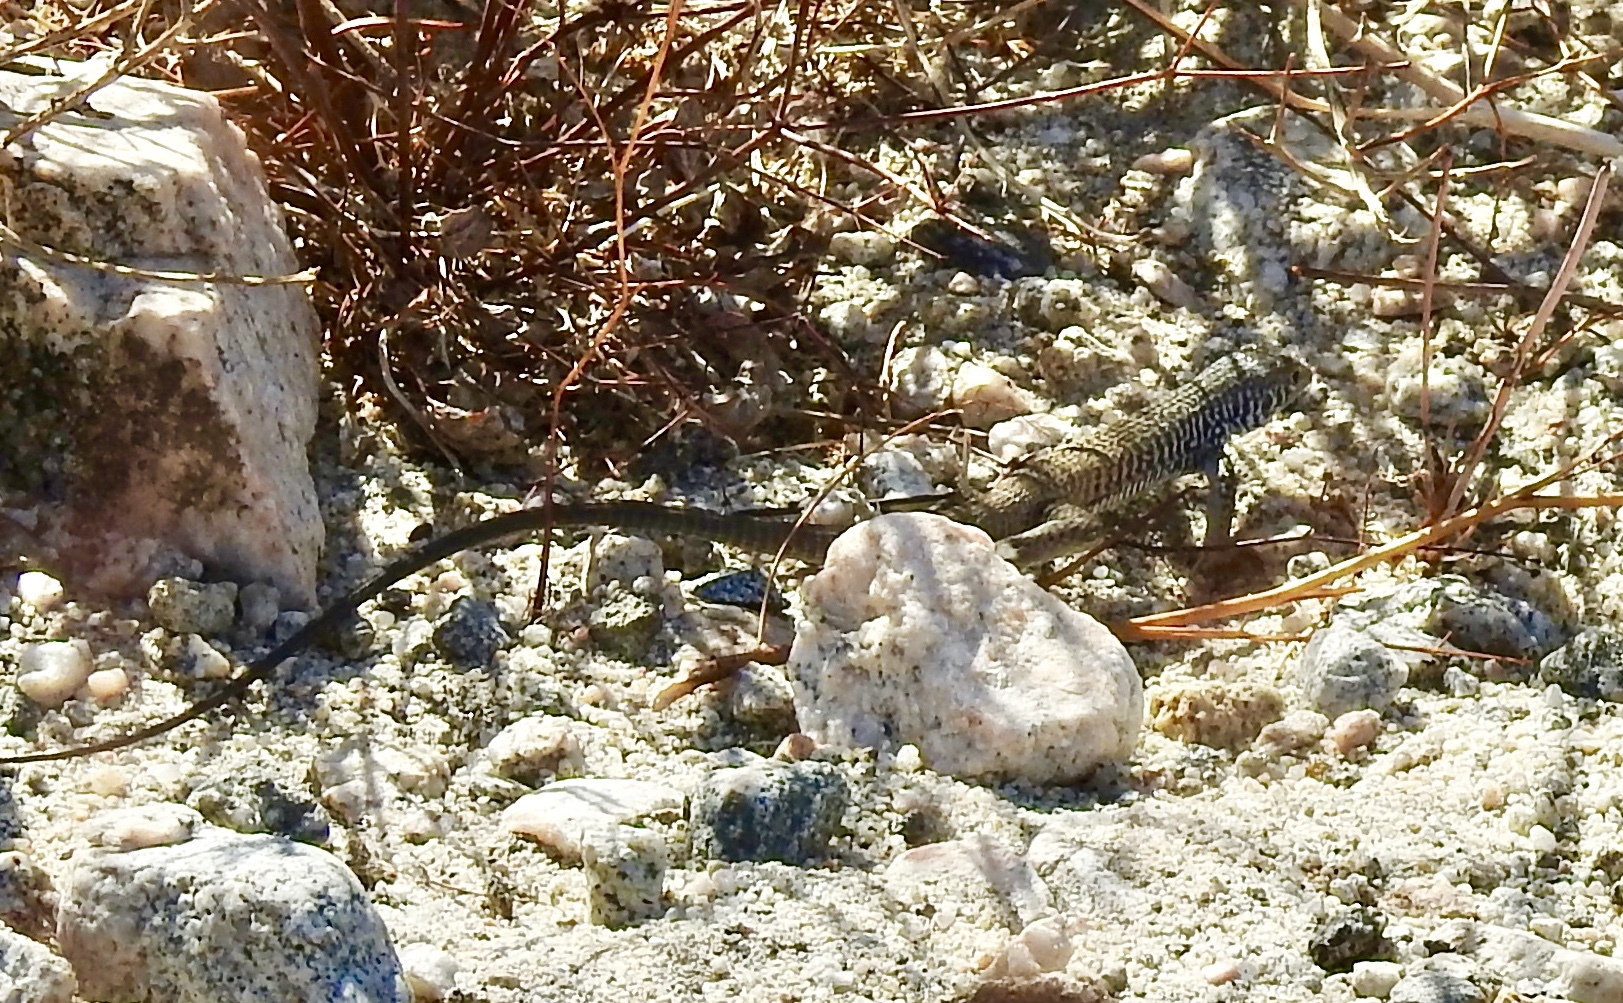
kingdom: Animalia
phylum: Chordata
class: Squamata
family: Teiidae
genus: Aspidoscelis
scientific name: Aspidoscelis tigris
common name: Tiger whiptail
